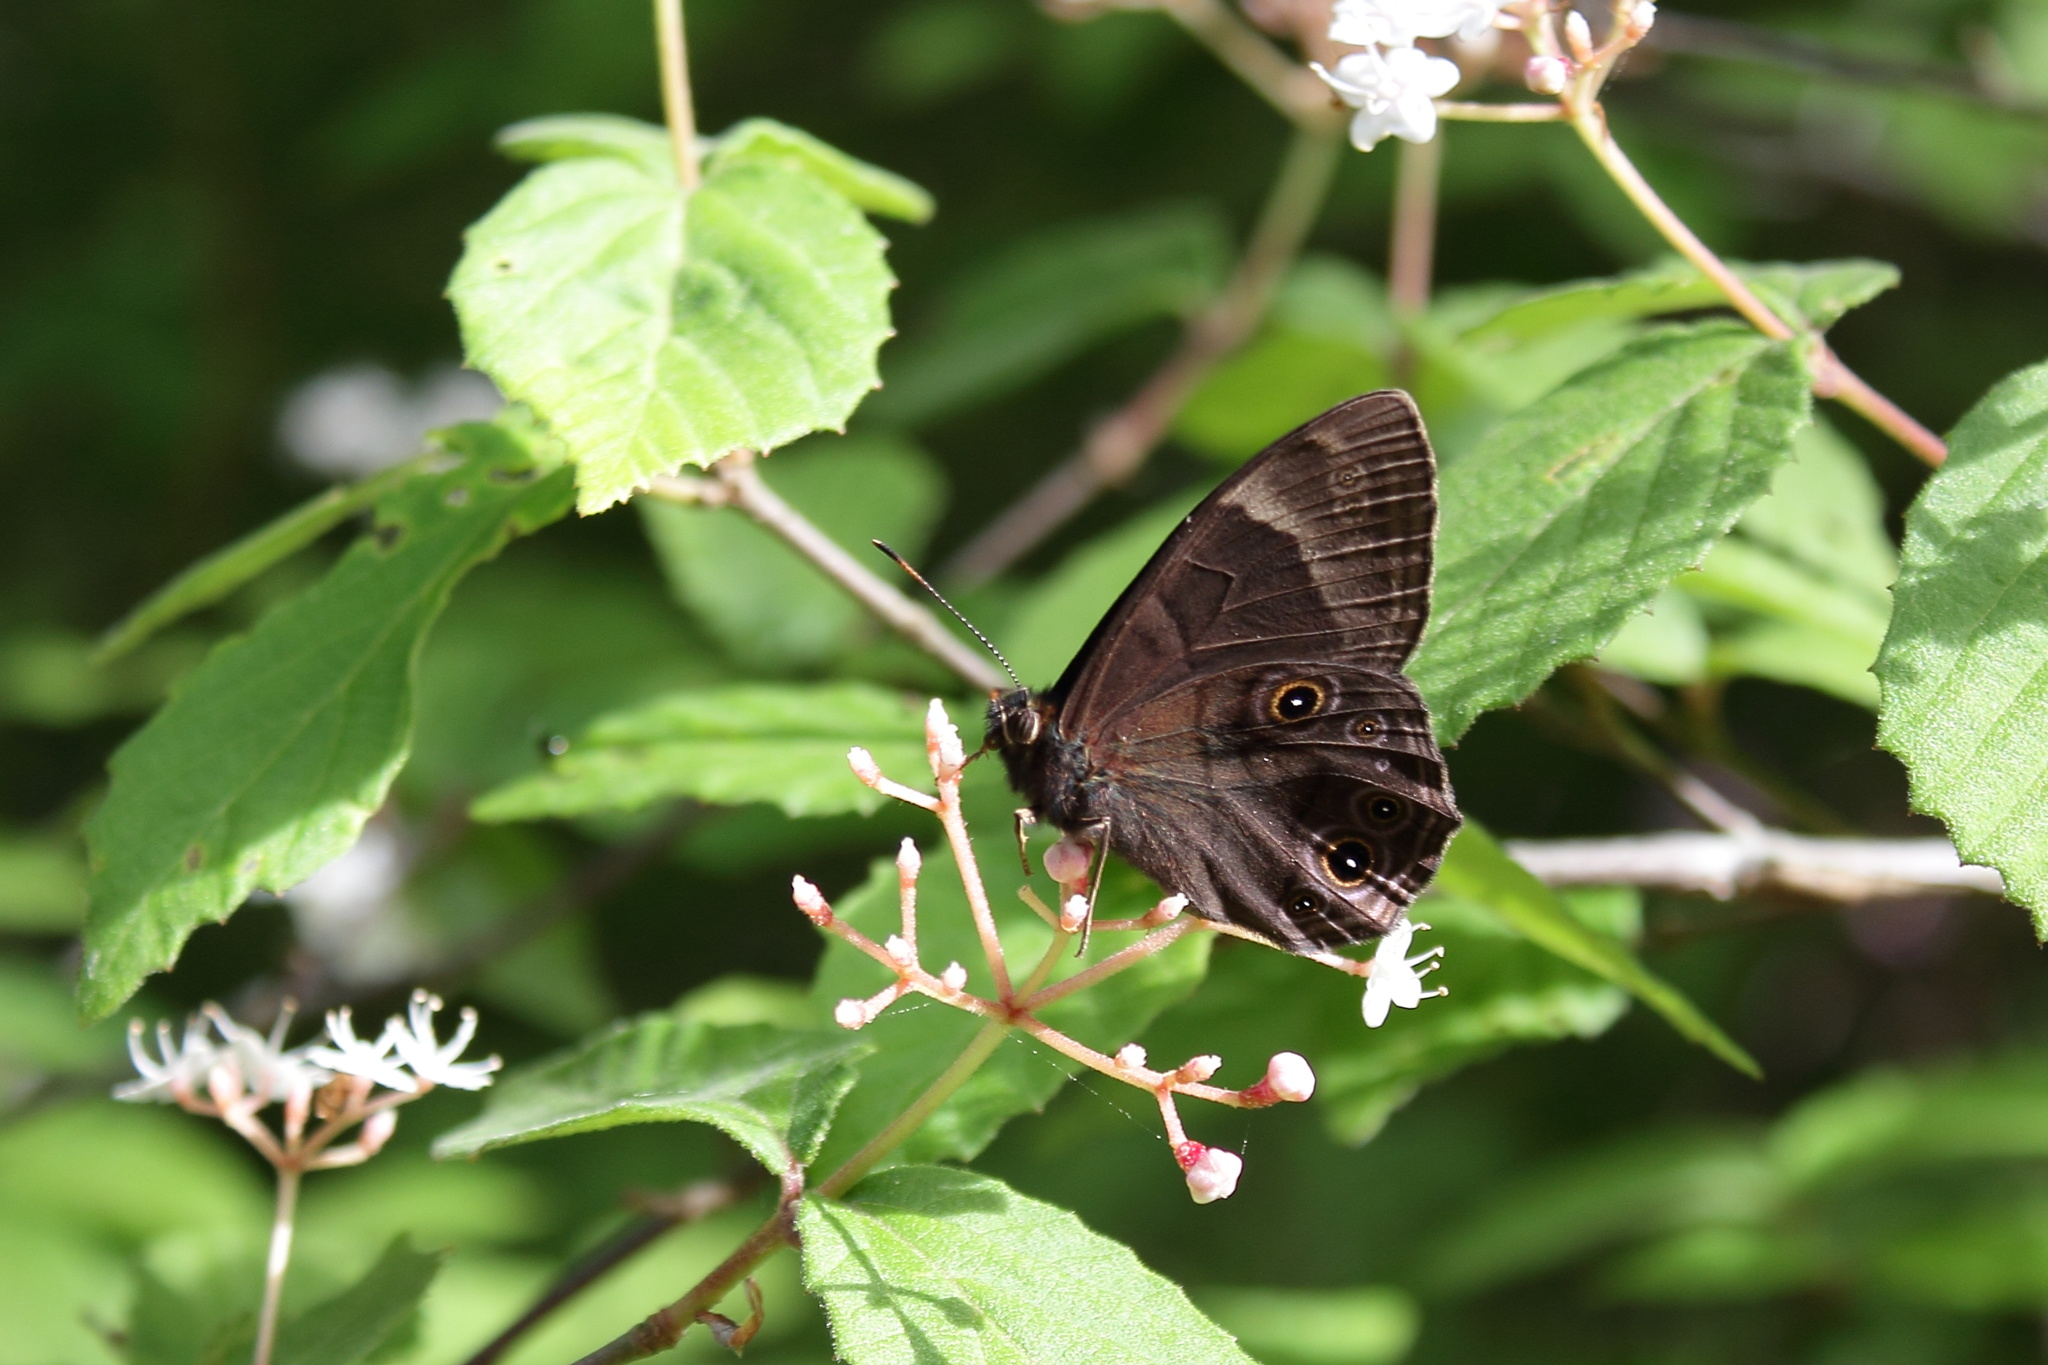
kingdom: Animalia
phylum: Arthropoda
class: Insecta
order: Lepidoptera
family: Nymphalidae
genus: Lethe
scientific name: Lethe diana
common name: Diana treebrown
